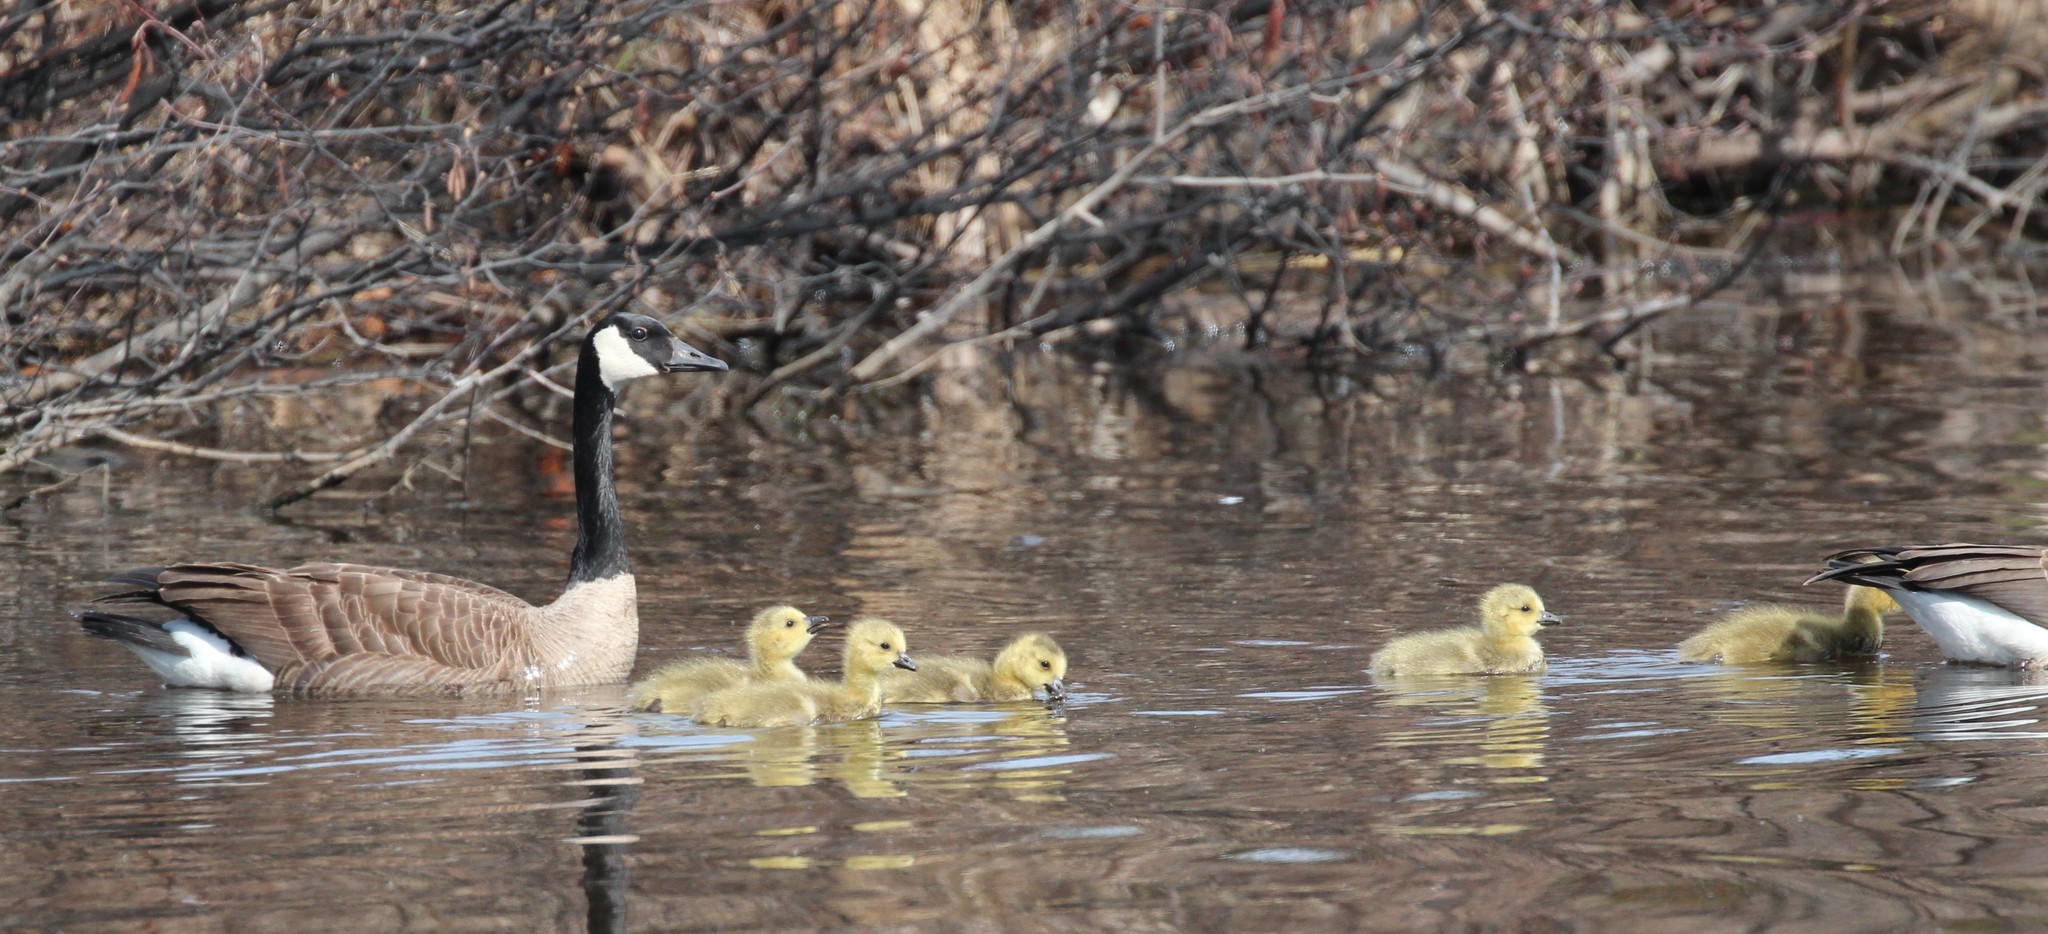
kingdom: Animalia
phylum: Chordata
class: Aves
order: Anseriformes
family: Anatidae
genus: Branta
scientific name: Branta canadensis
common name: Canada goose
